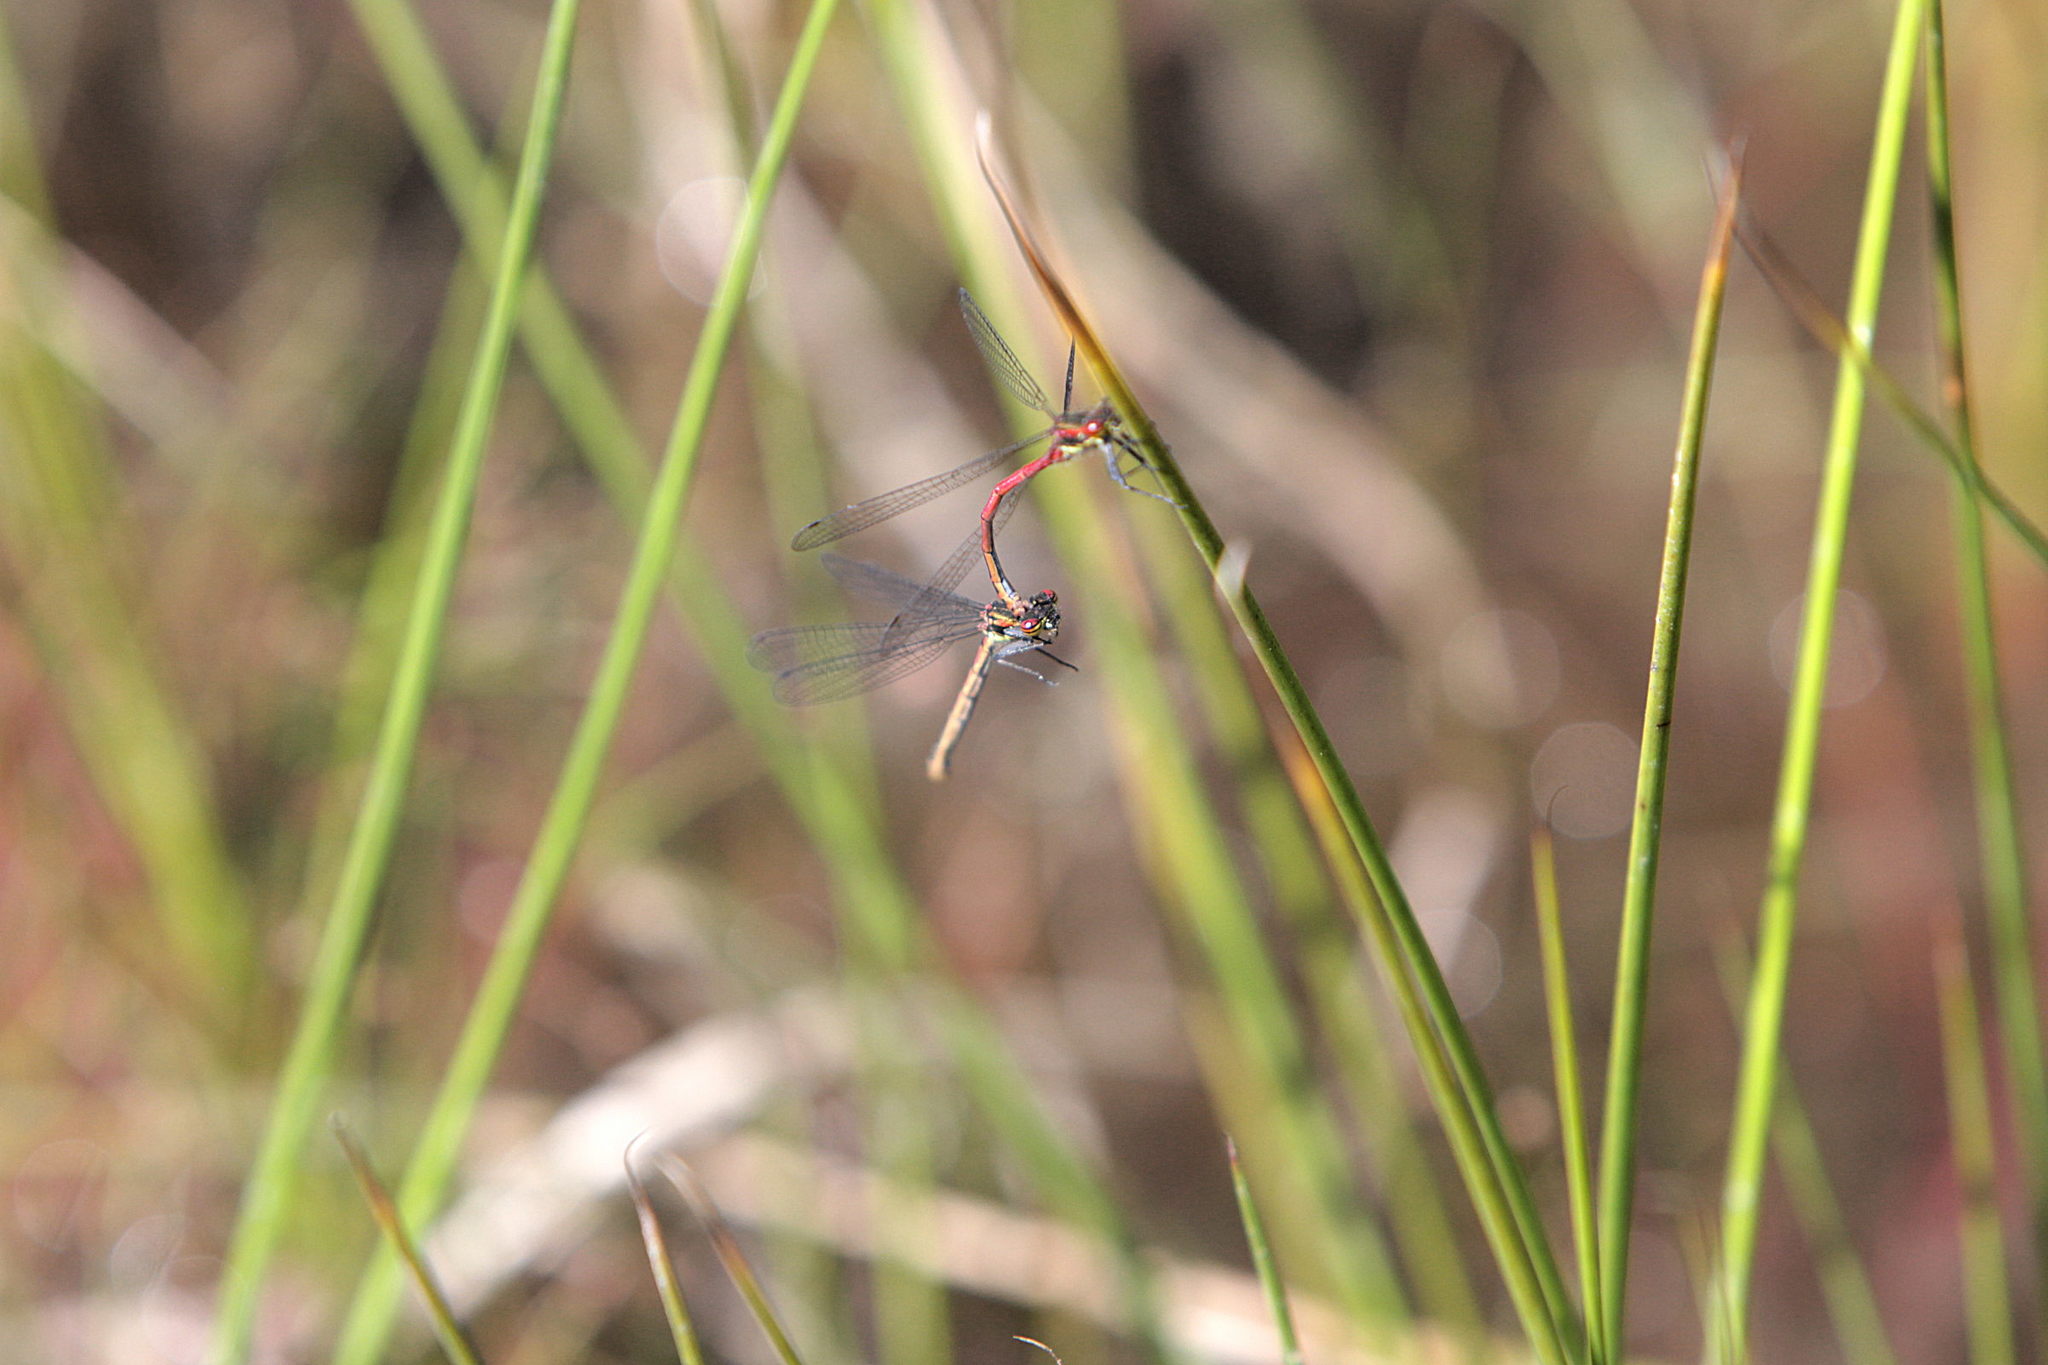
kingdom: Animalia
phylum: Arthropoda
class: Insecta
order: Odonata
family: Coenagrionidae
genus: Pyrrhosoma
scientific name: Pyrrhosoma nymphula
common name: Large red damsel
